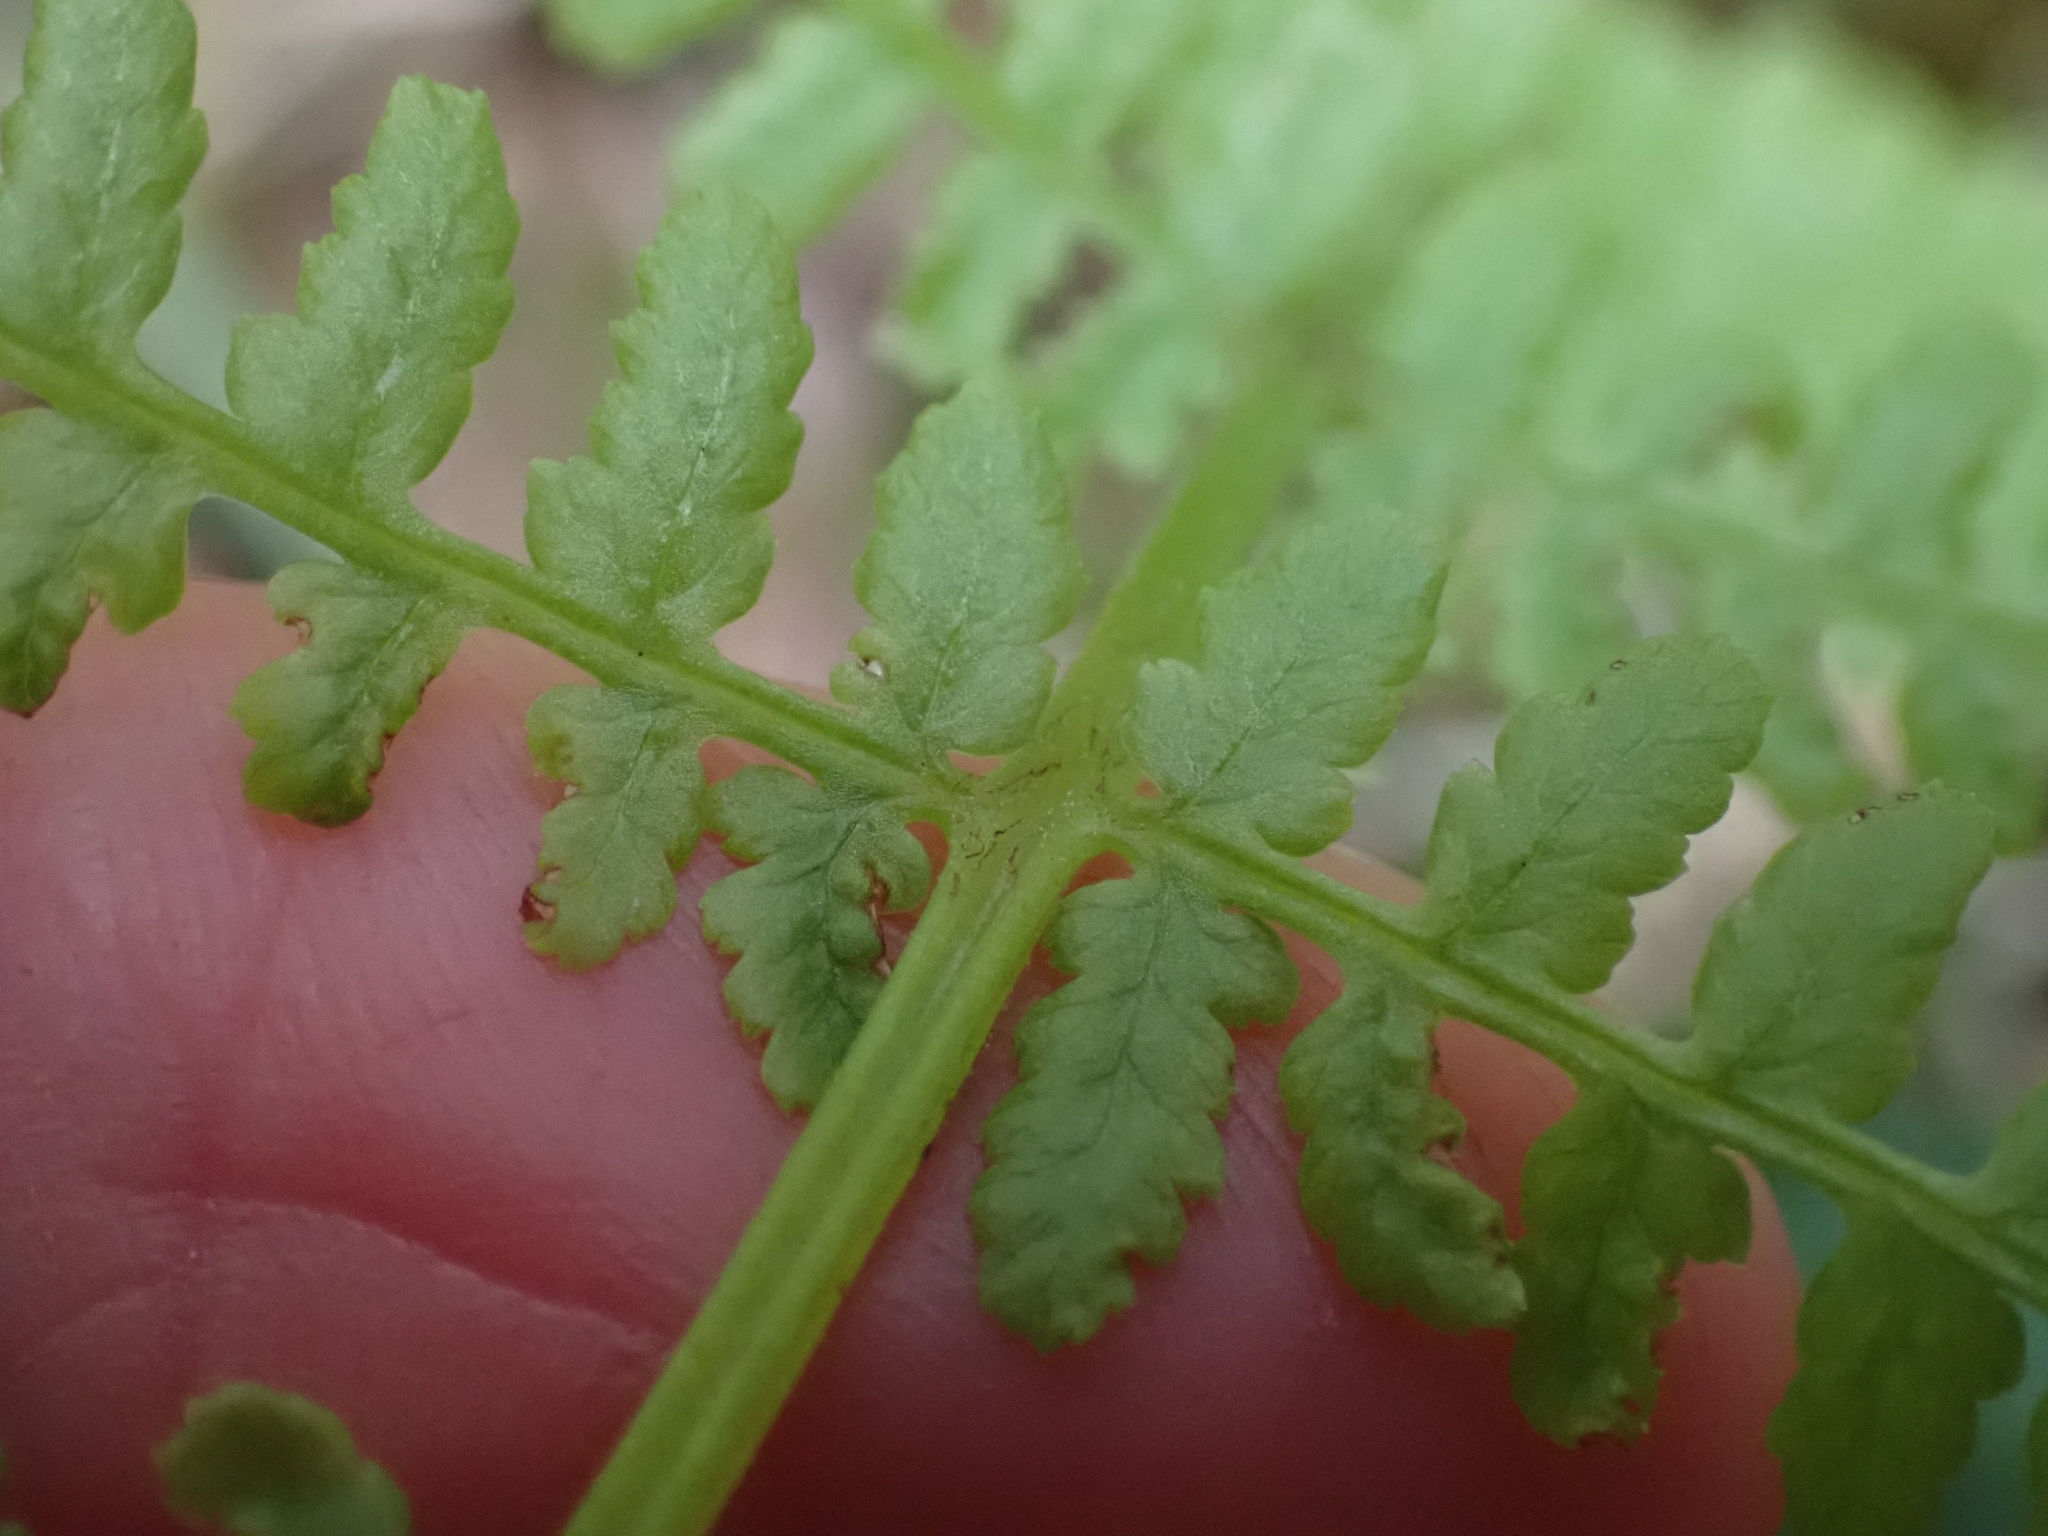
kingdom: Plantae
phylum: Tracheophyta
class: Polypodiopsida
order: Polypodiales
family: Athyriaceae
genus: Athyrium
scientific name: Athyrium filix-femina
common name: Lady fern
